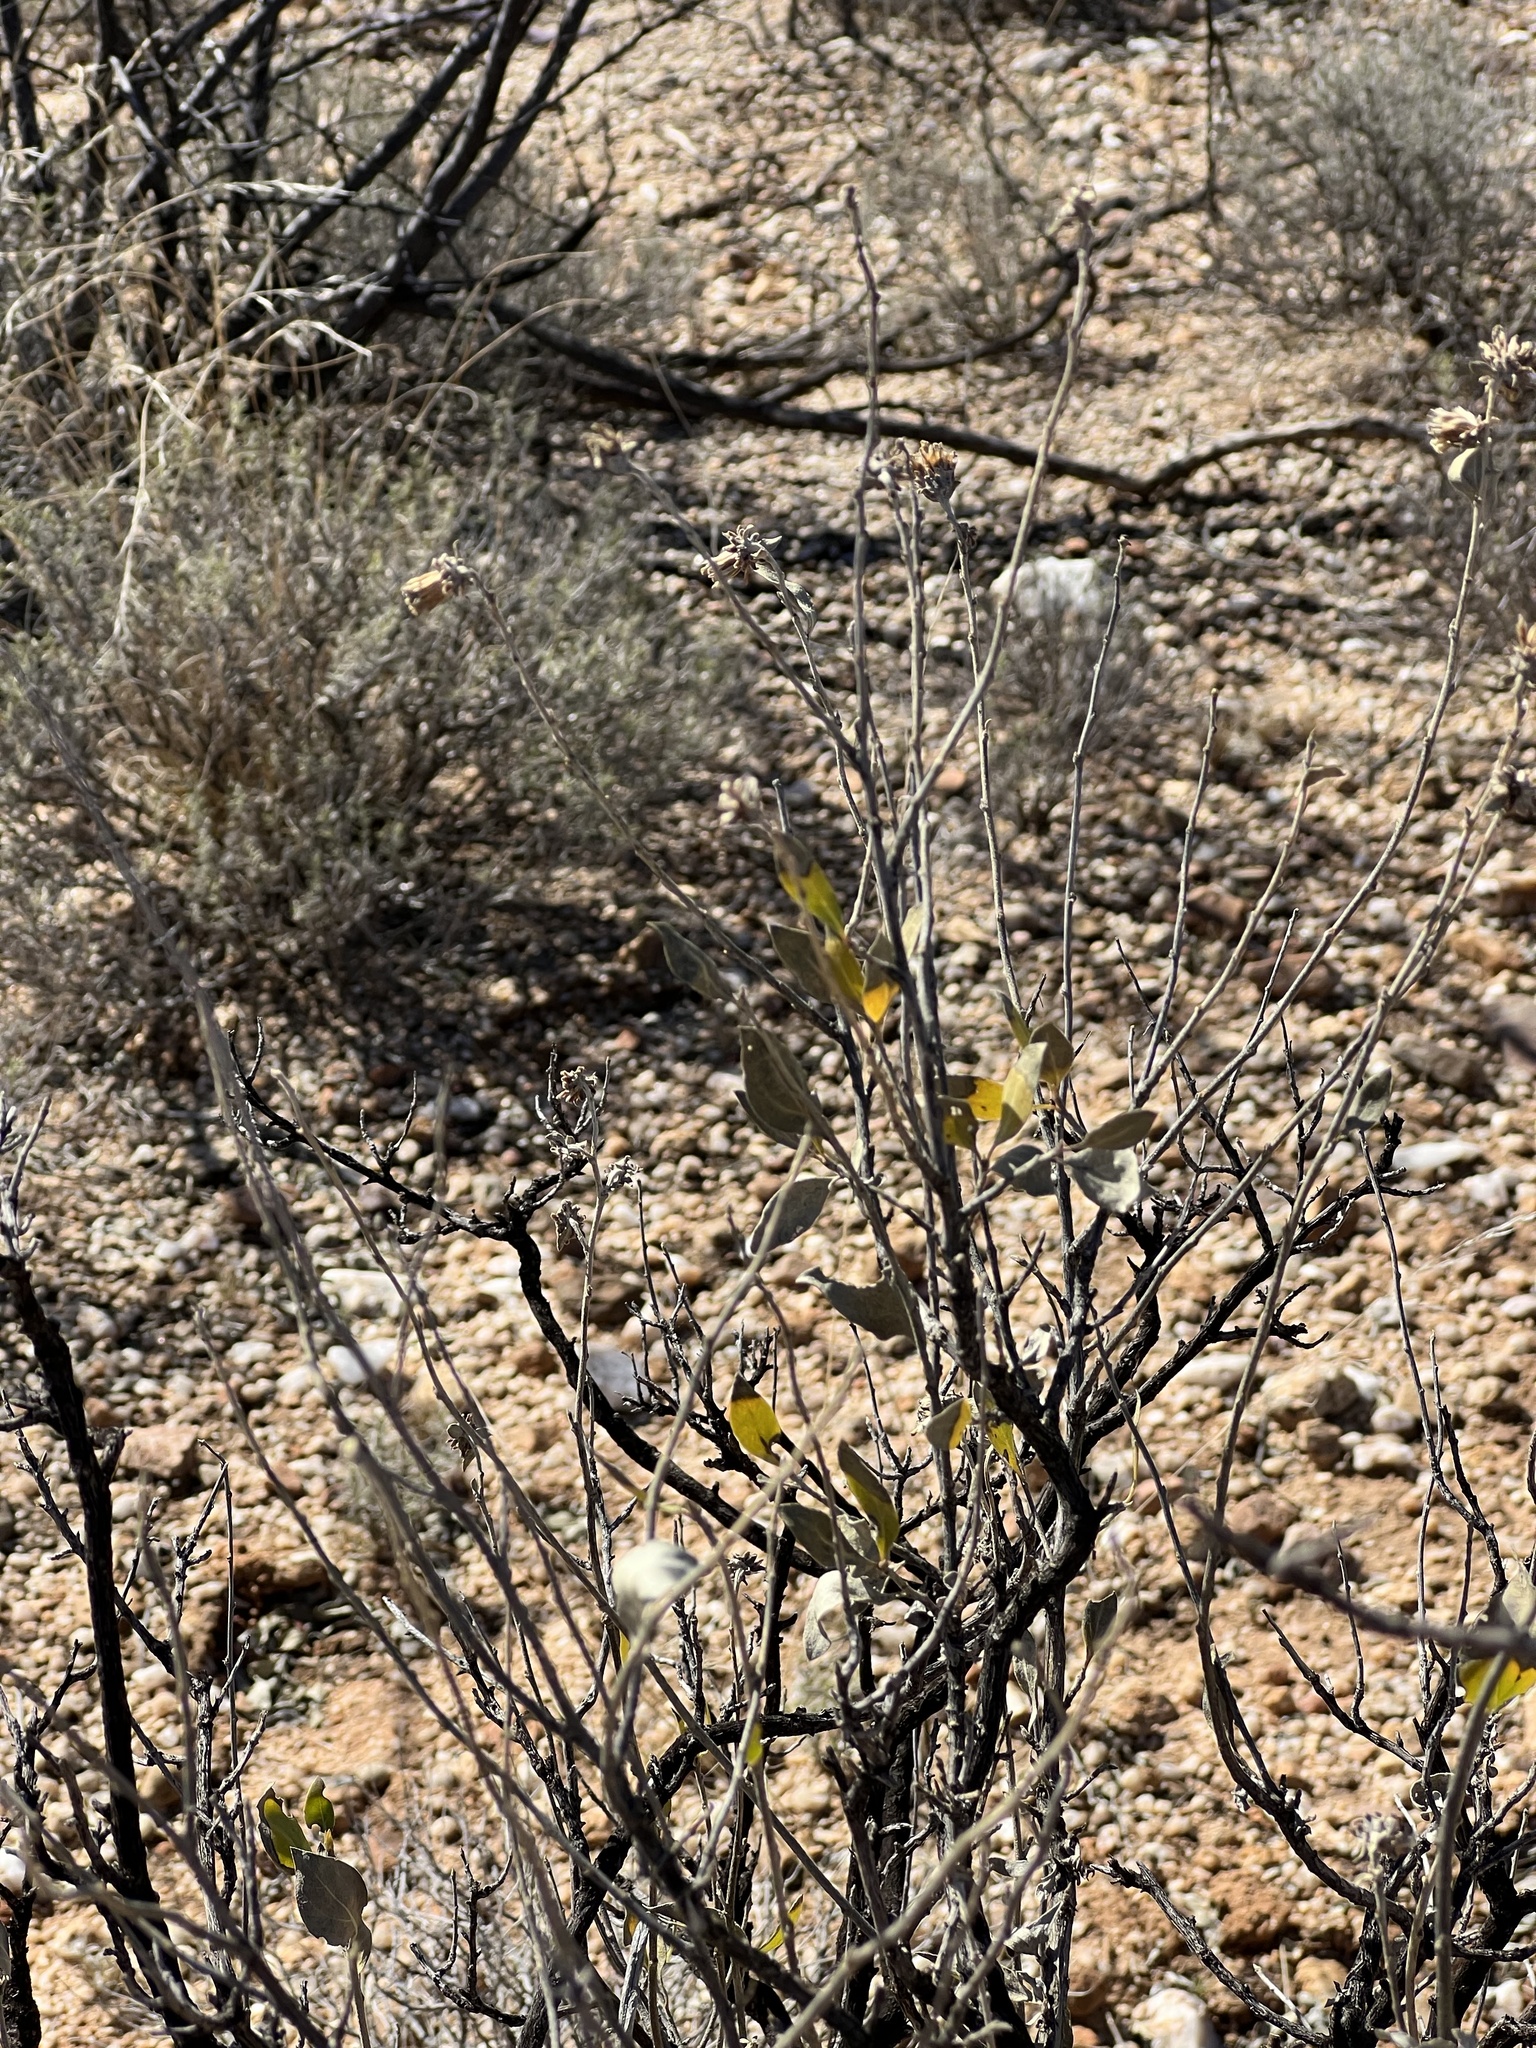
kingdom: Plantae
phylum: Tracheophyta
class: Magnoliopsida
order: Asterales
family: Asteraceae
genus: Flourensia
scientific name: Flourensia cernua
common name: Varnishbush
